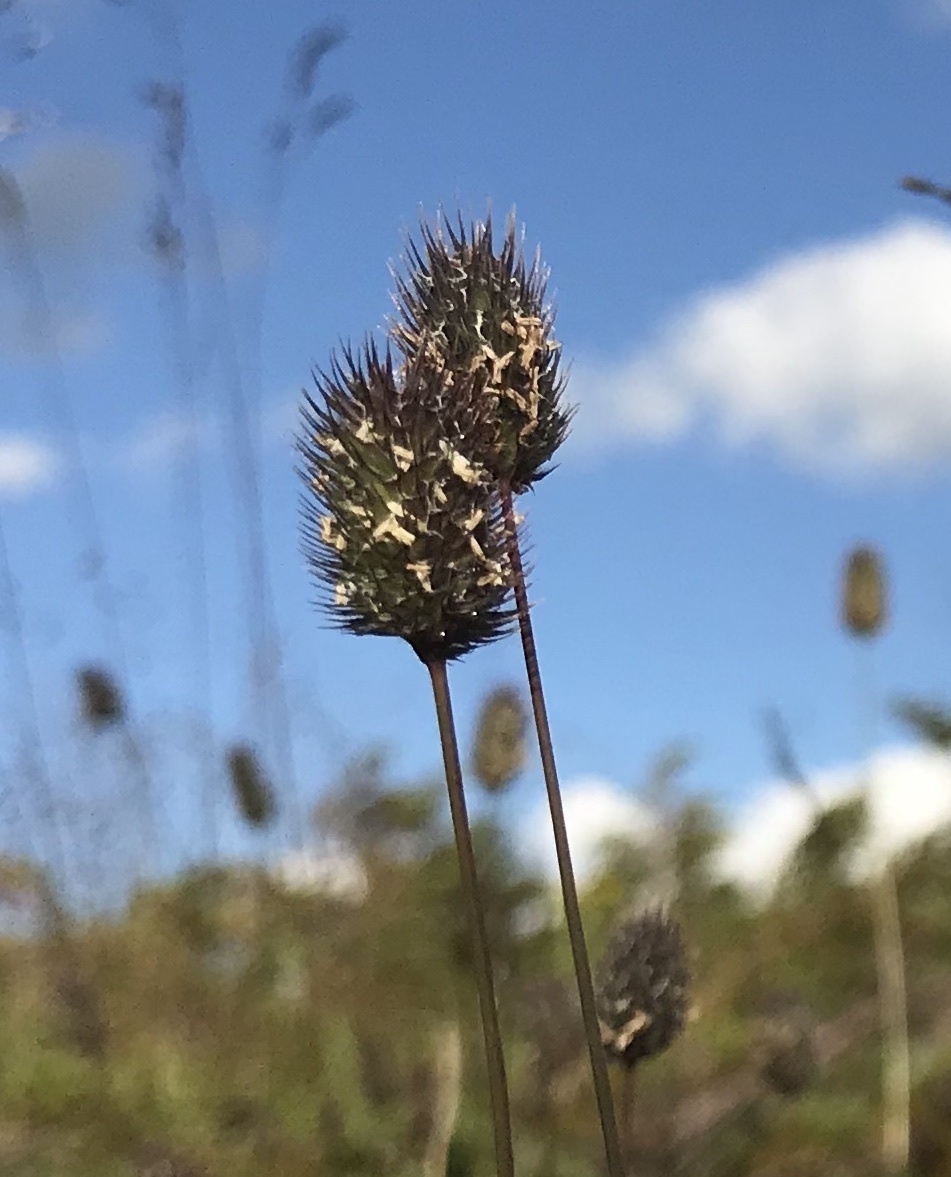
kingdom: Plantae
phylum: Tracheophyta
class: Liliopsida
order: Poales
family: Poaceae
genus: Phleum
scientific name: Phleum alpinum
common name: Alpine cat's-tail
